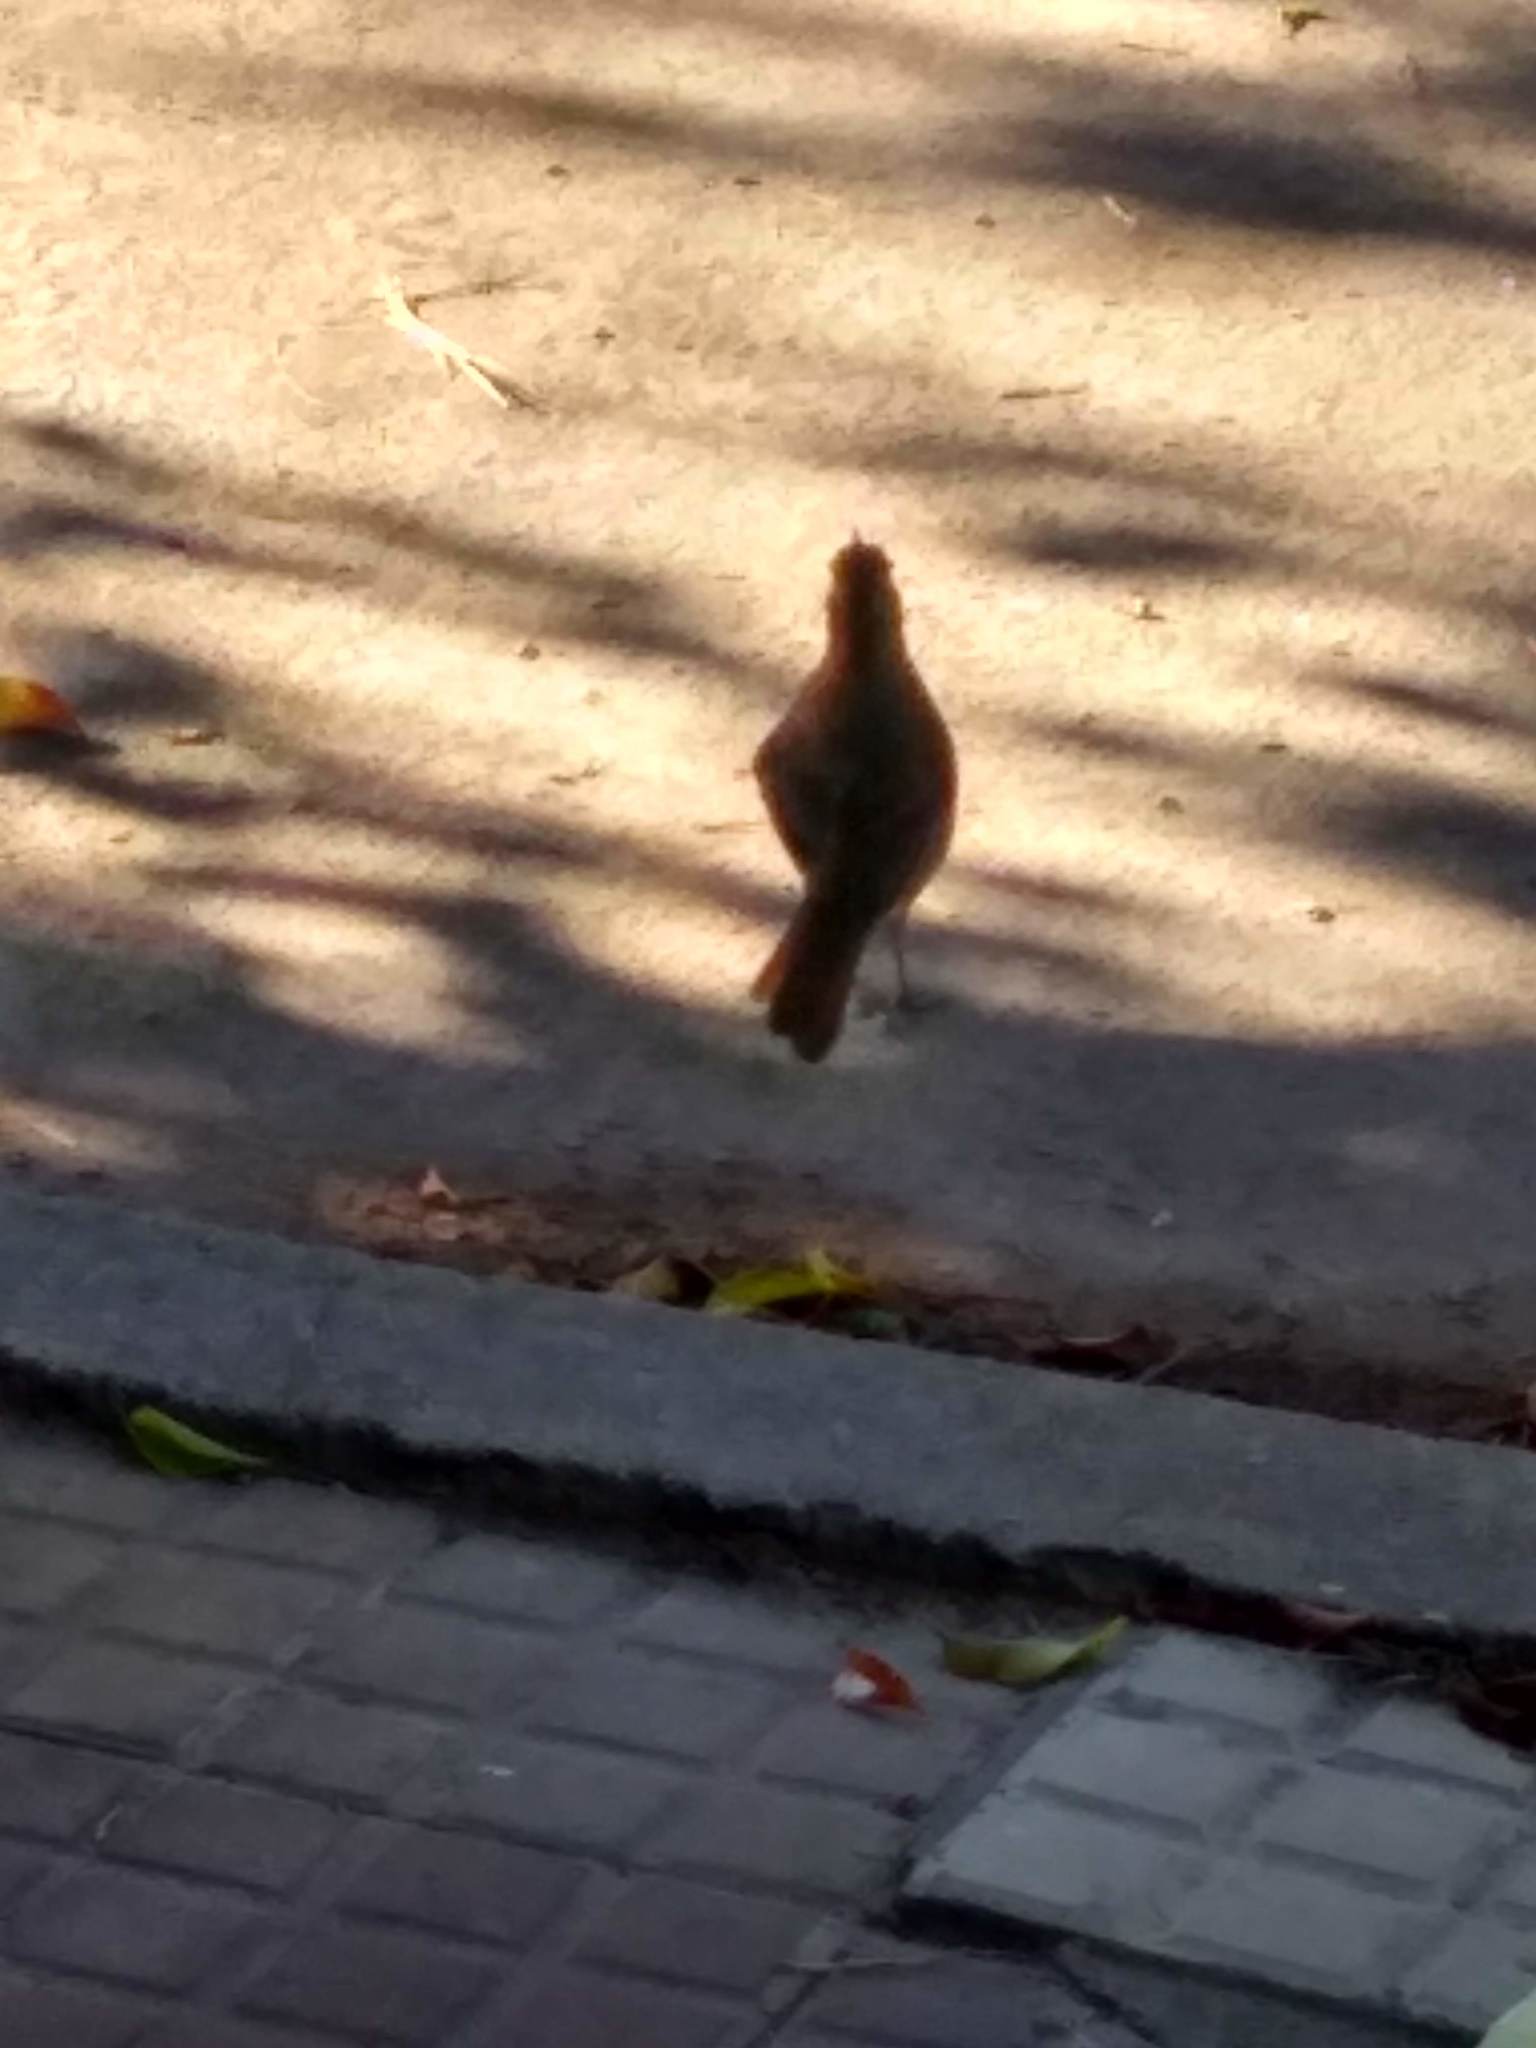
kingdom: Animalia
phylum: Chordata
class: Aves
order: Passeriformes
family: Furnariidae
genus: Furnarius
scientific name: Furnarius rufus
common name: Rufous hornero
